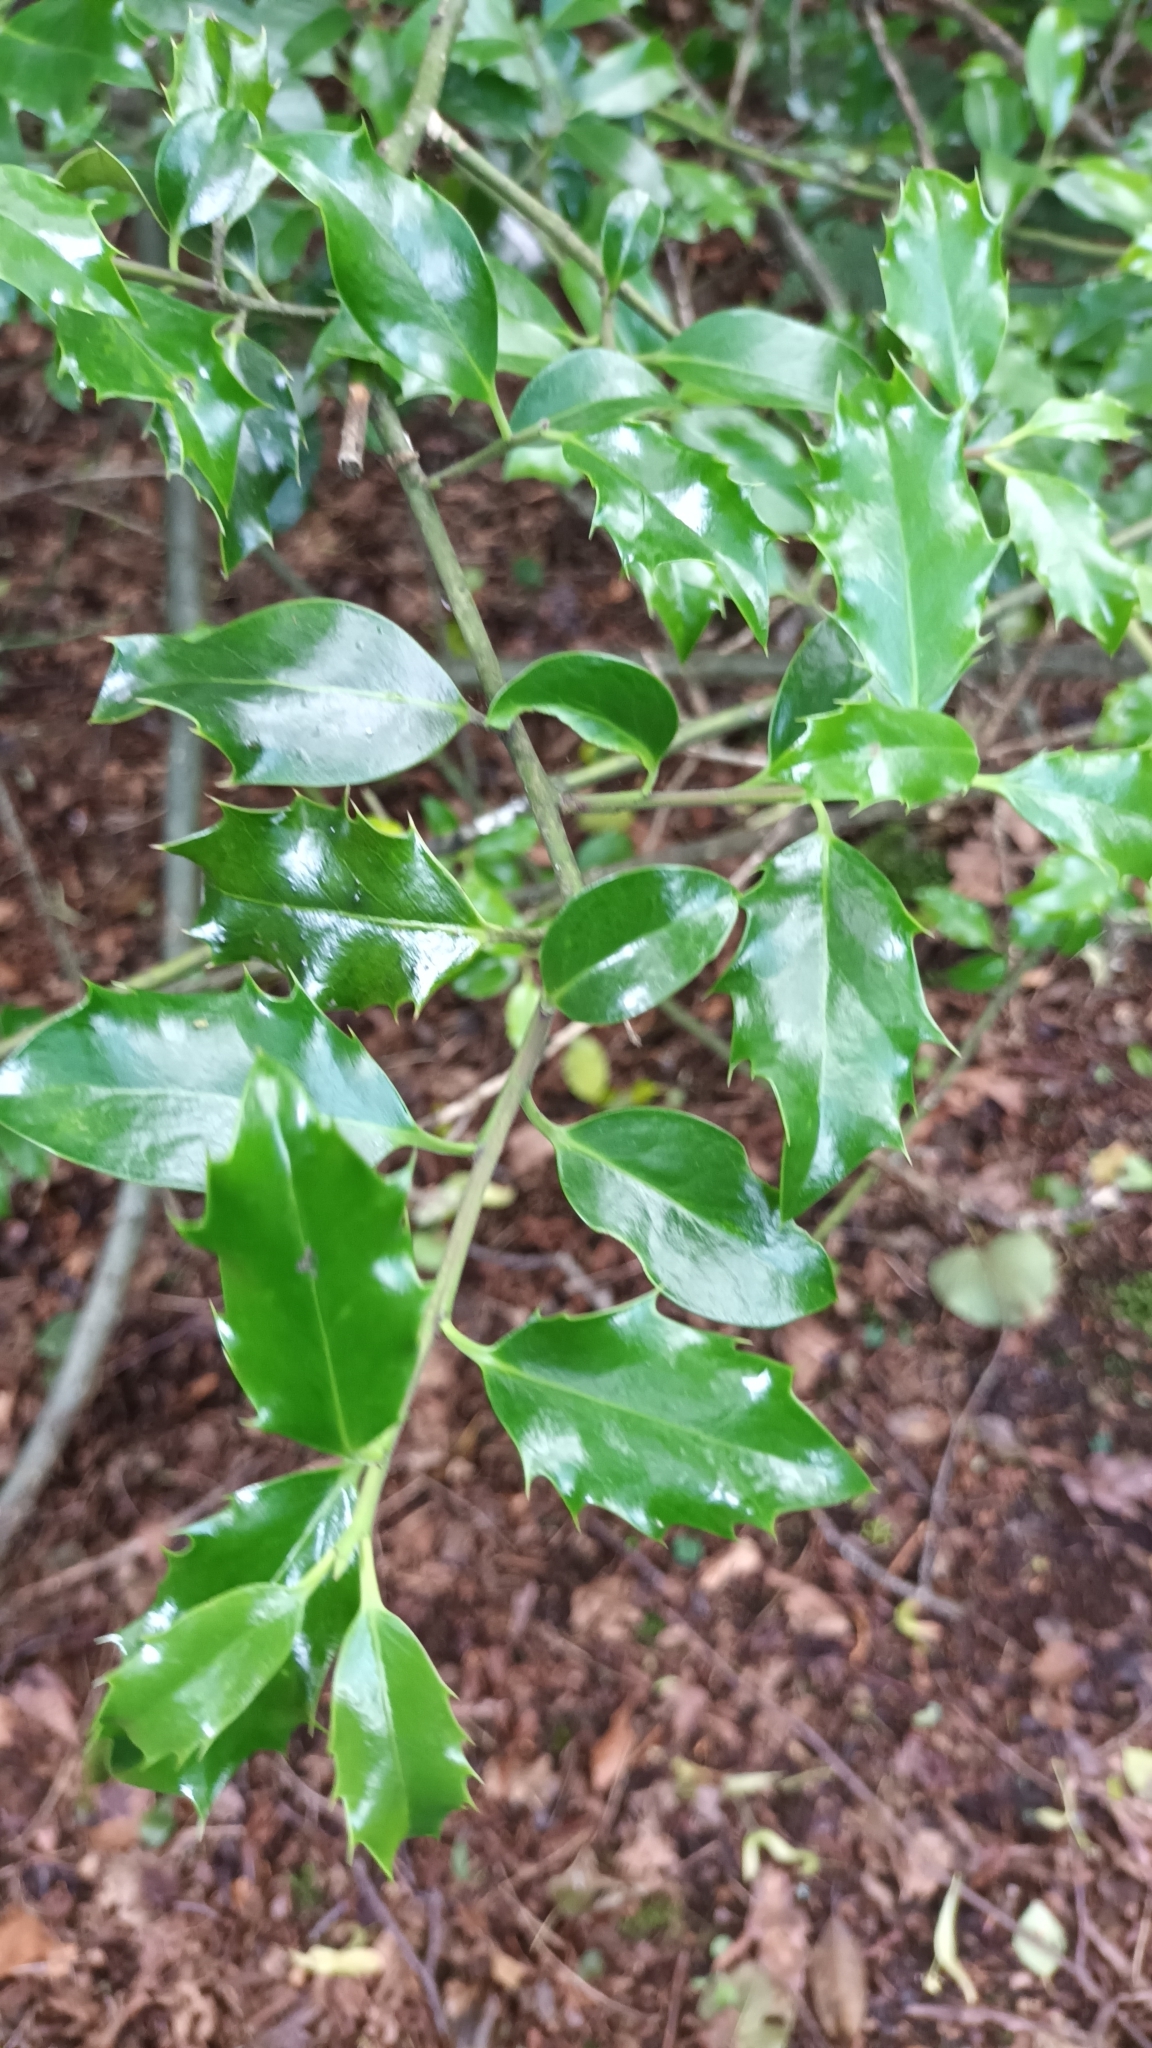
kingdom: Plantae
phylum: Tracheophyta
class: Magnoliopsida
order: Aquifoliales
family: Aquifoliaceae
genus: Ilex
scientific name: Ilex aquifolium
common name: English holly
